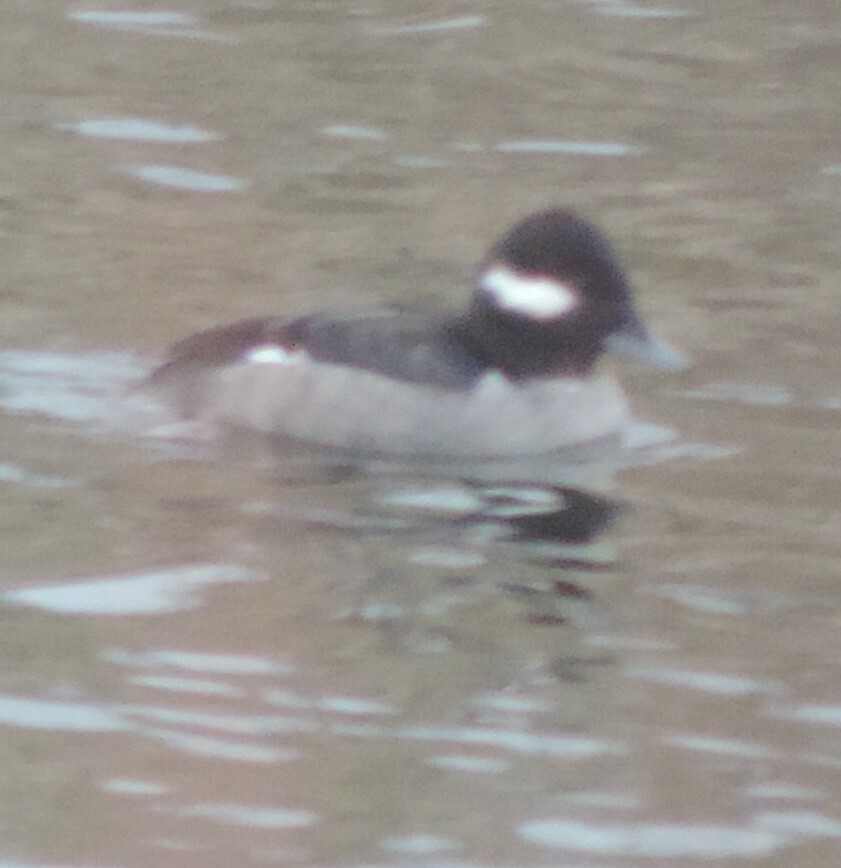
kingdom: Animalia
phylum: Chordata
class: Aves
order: Anseriformes
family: Anatidae
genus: Bucephala
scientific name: Bucephala albeola
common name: Bufflehead
